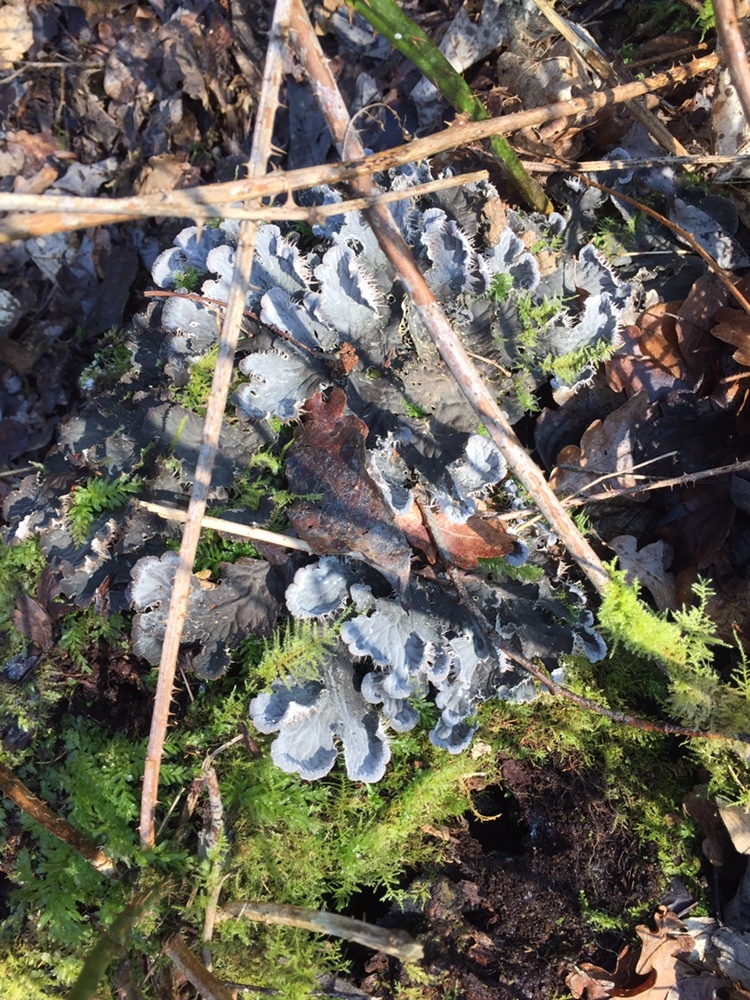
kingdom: Fungi
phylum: Ascomycota
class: Lecanoromycetes
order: Peltigerales
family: Peltigeraceae
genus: Peltigera
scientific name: Peltigera
